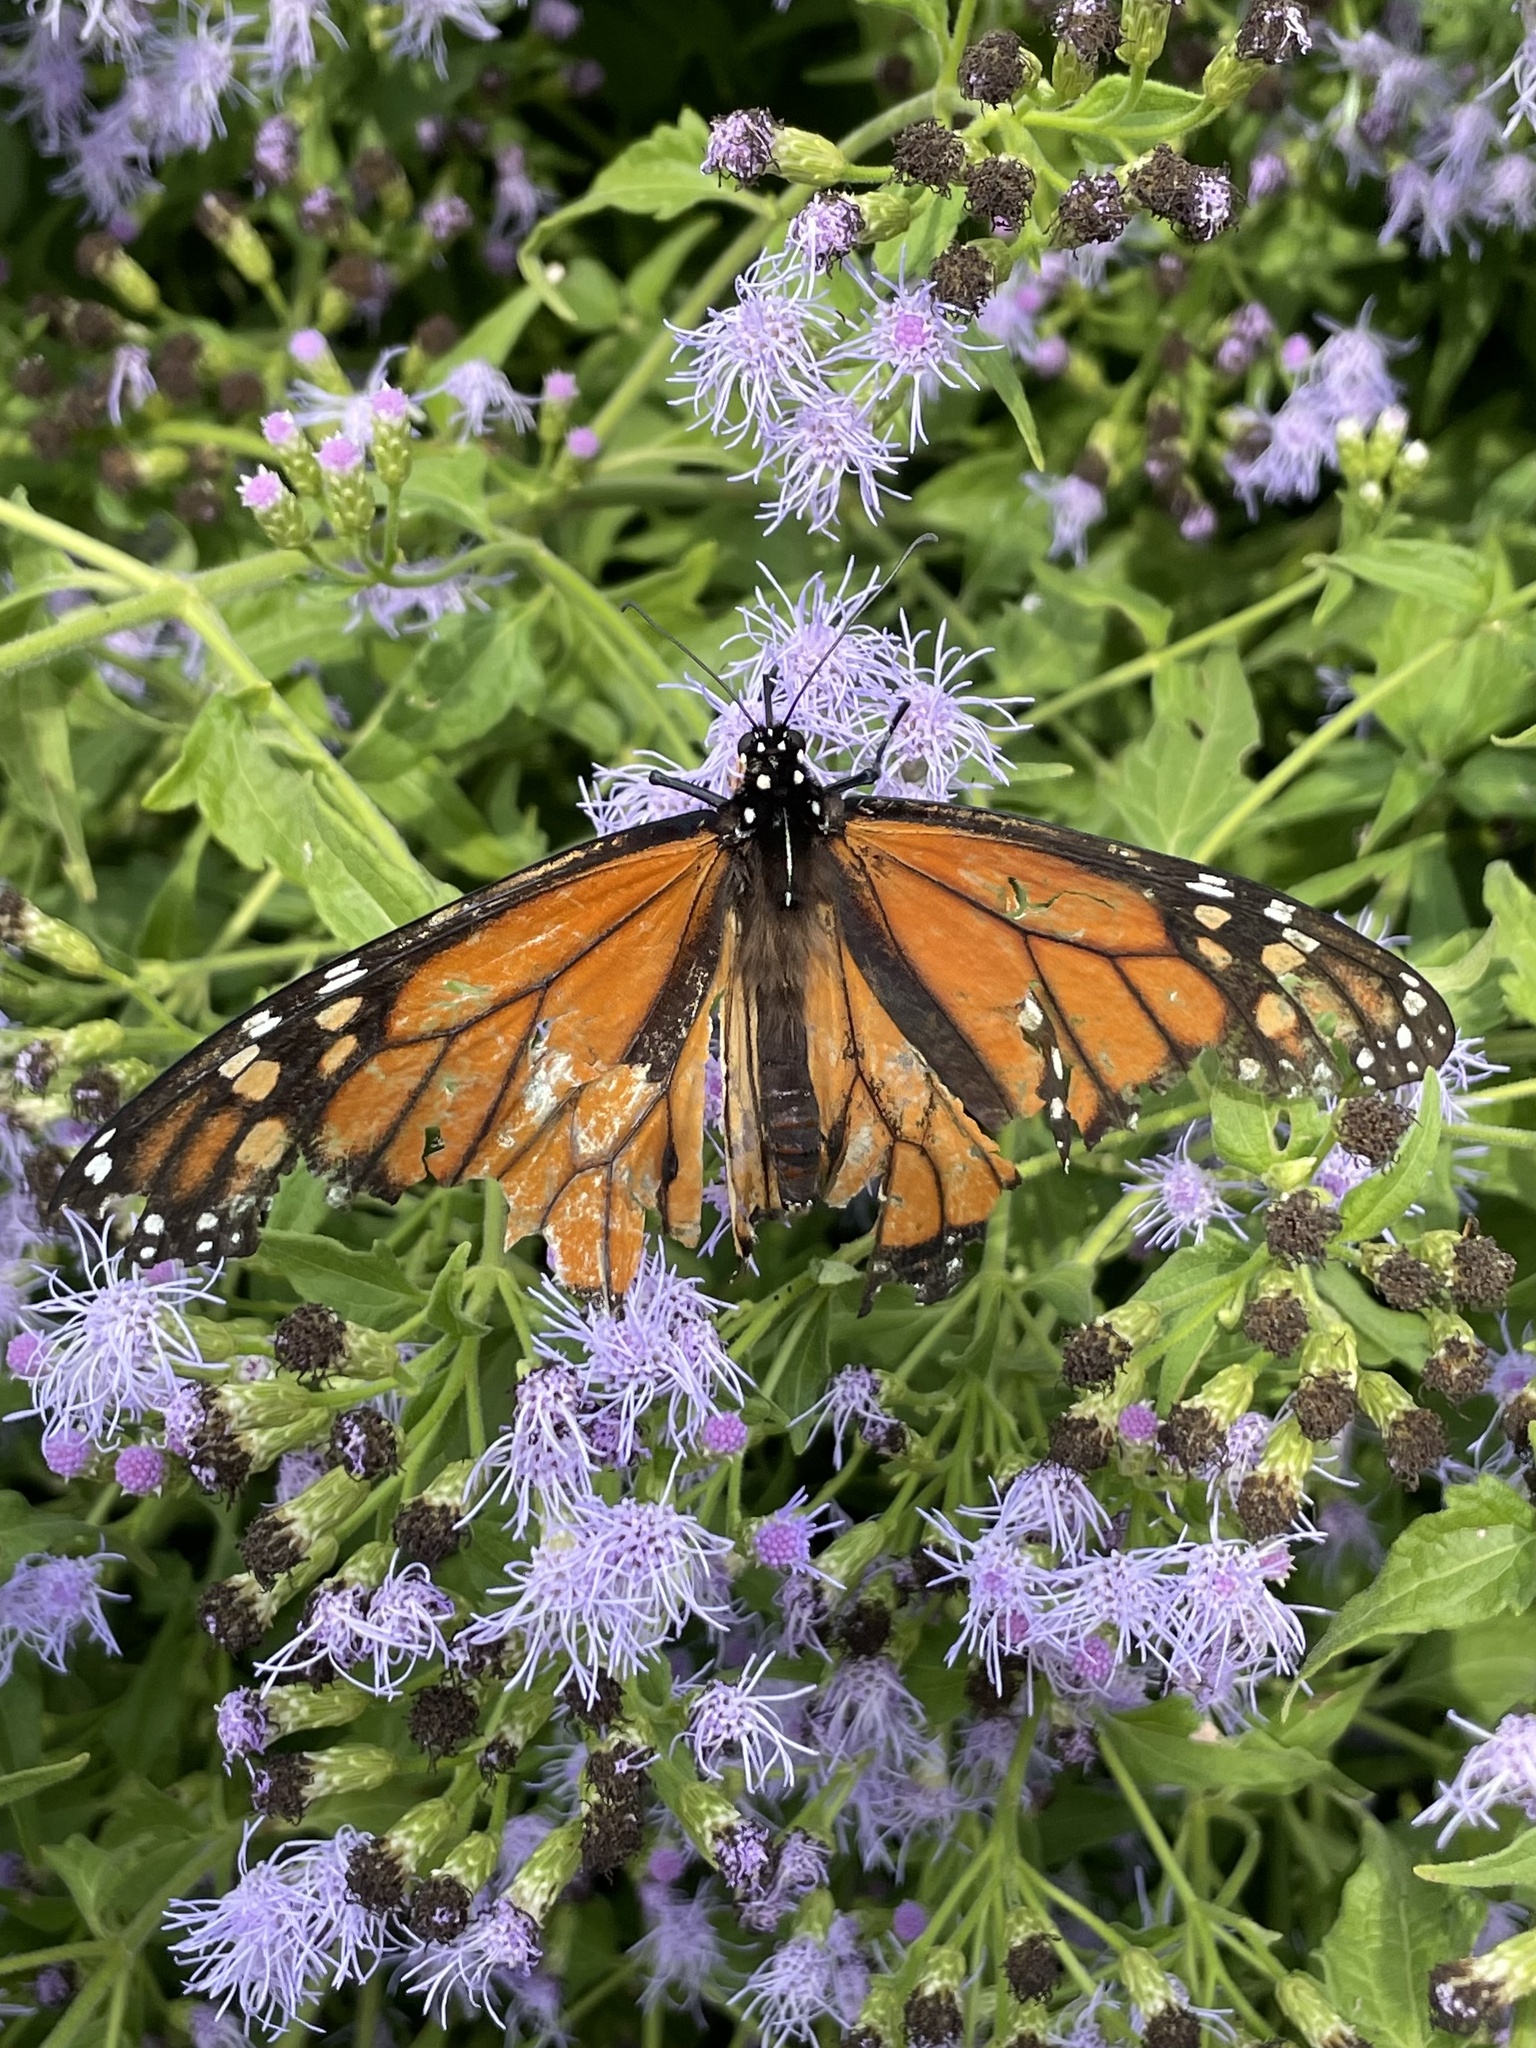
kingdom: Animalia
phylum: Arthropoda
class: Insecta
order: Lepidoptera
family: Nymphalidae
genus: Danaus
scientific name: Danaus plexippus
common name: Monarch
